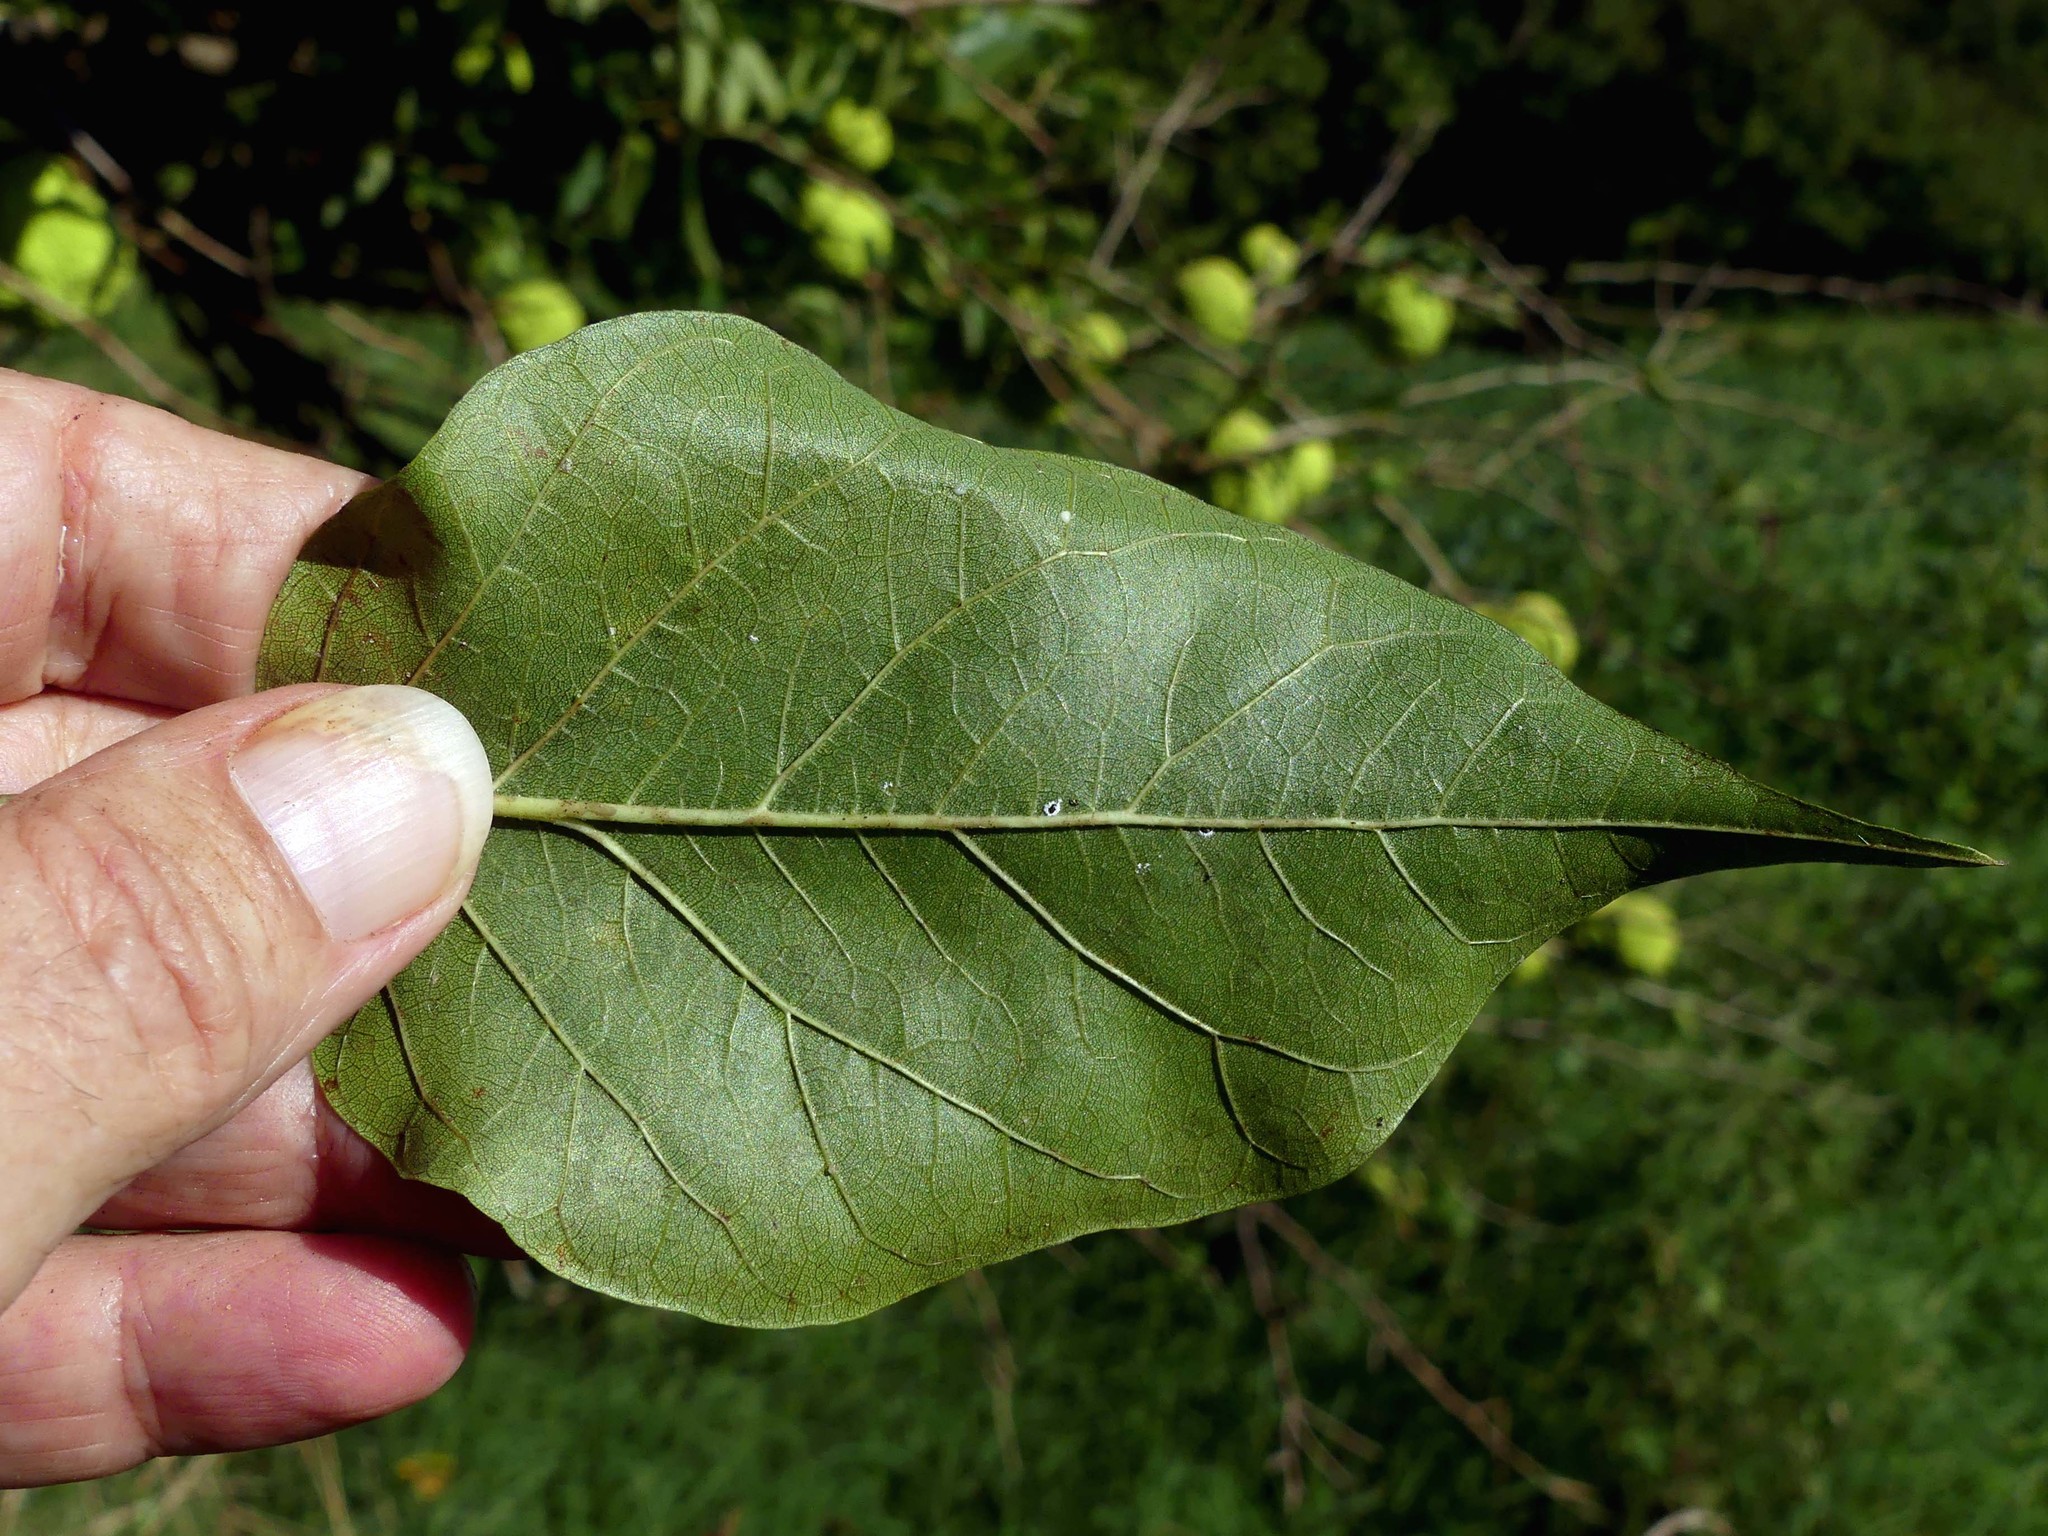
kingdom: Plantae
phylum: Tracheophyta
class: Magnoliopsida
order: Rosales
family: Moraceae
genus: Maclura
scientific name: Maclura pomifera
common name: Osage-orange
